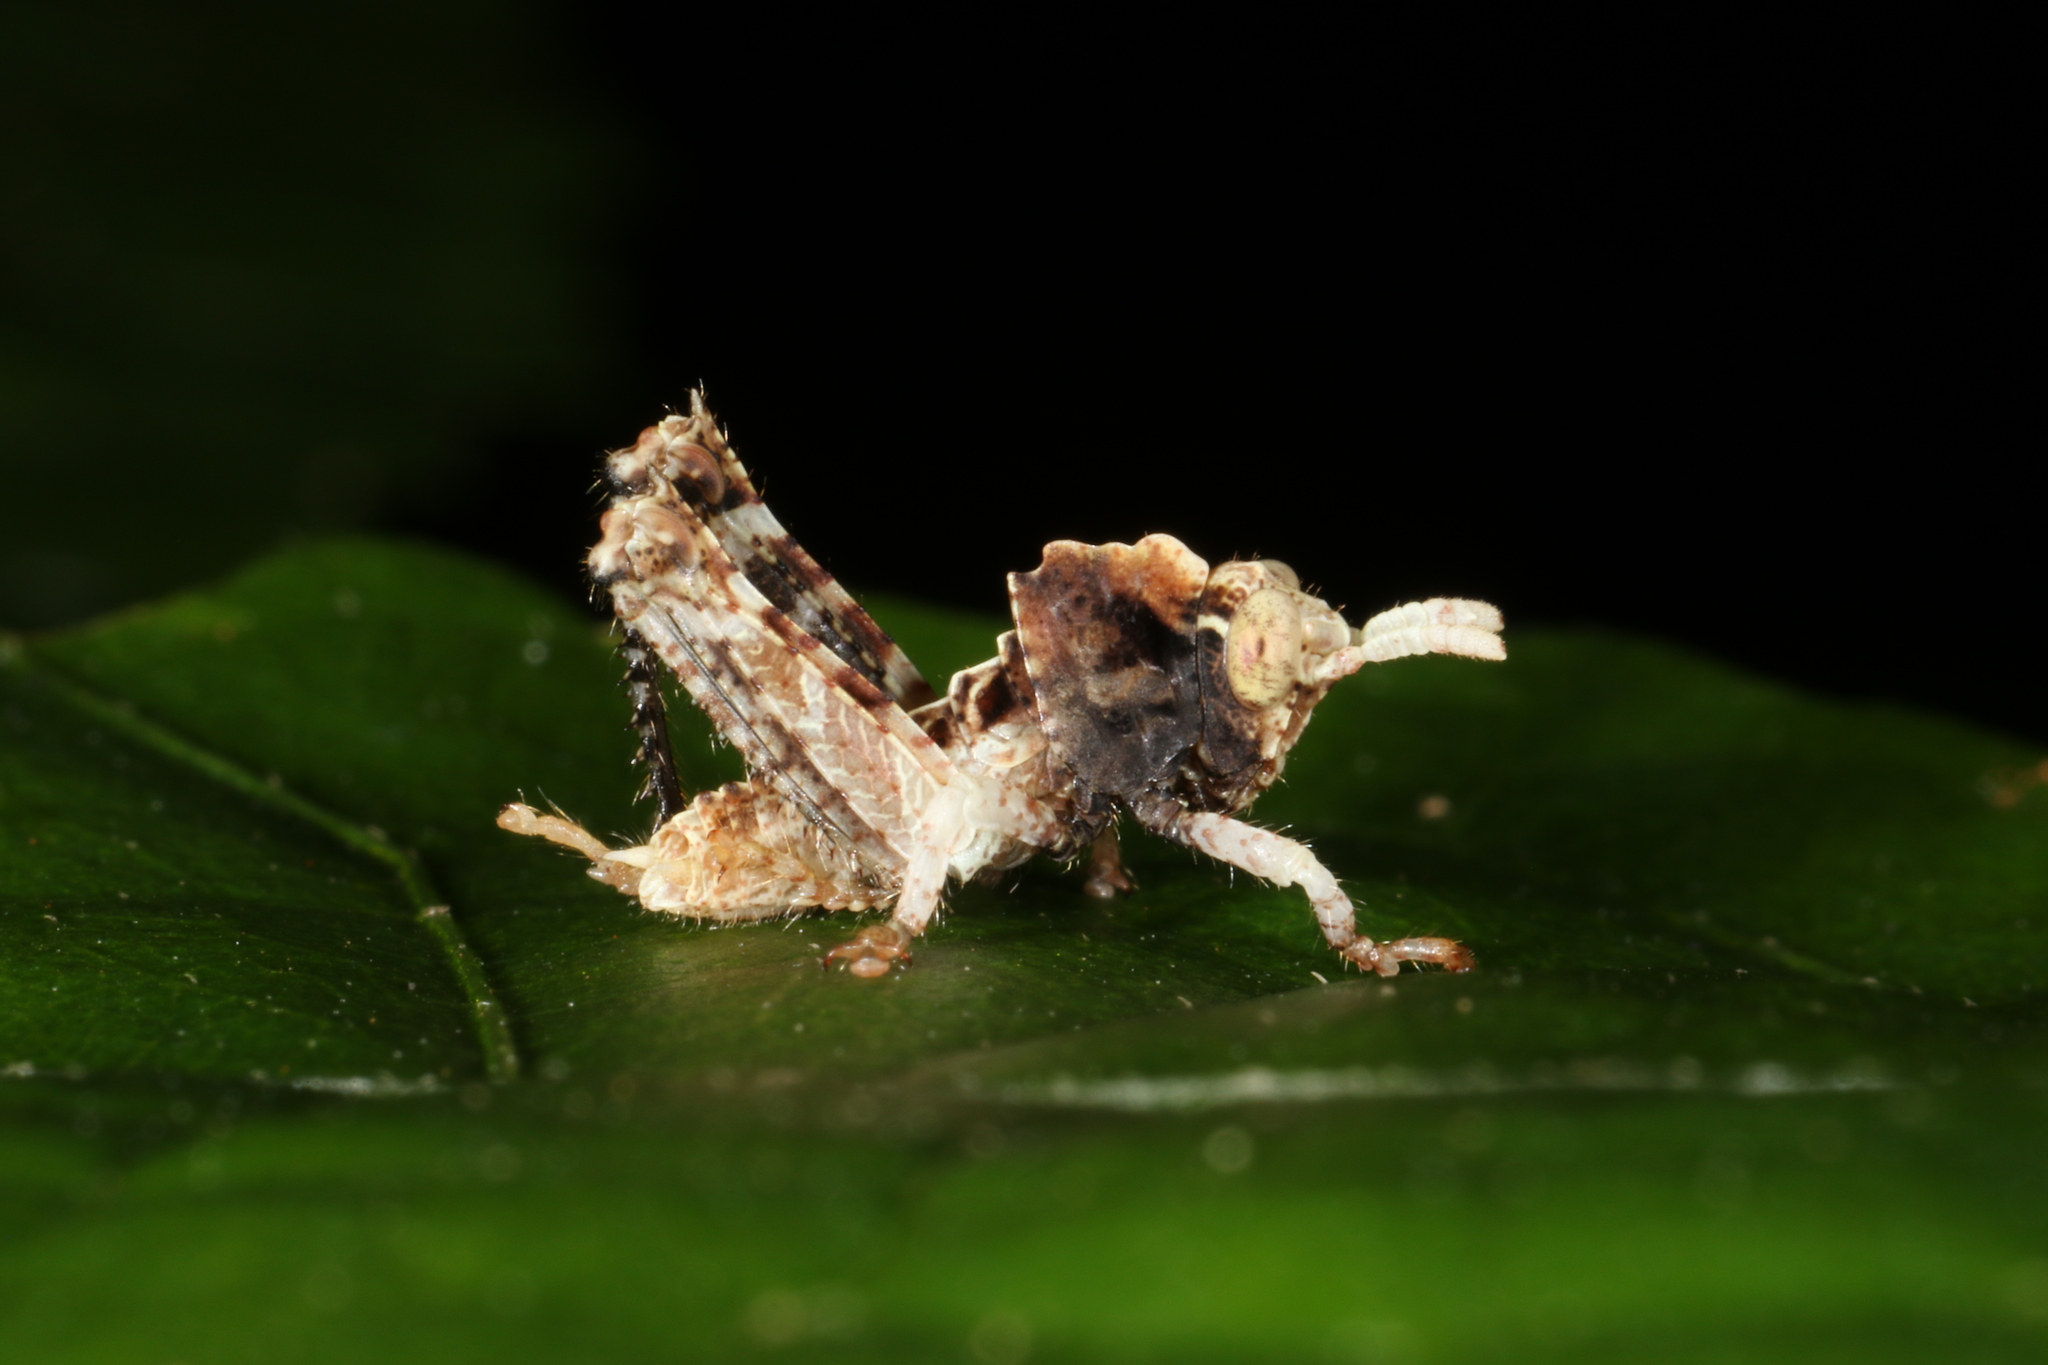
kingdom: Animalia
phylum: Arthropoda
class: Insecta
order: Orthoptera
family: Acrididae
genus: Pycnosarcus
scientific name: Pycnosarcus atavus
